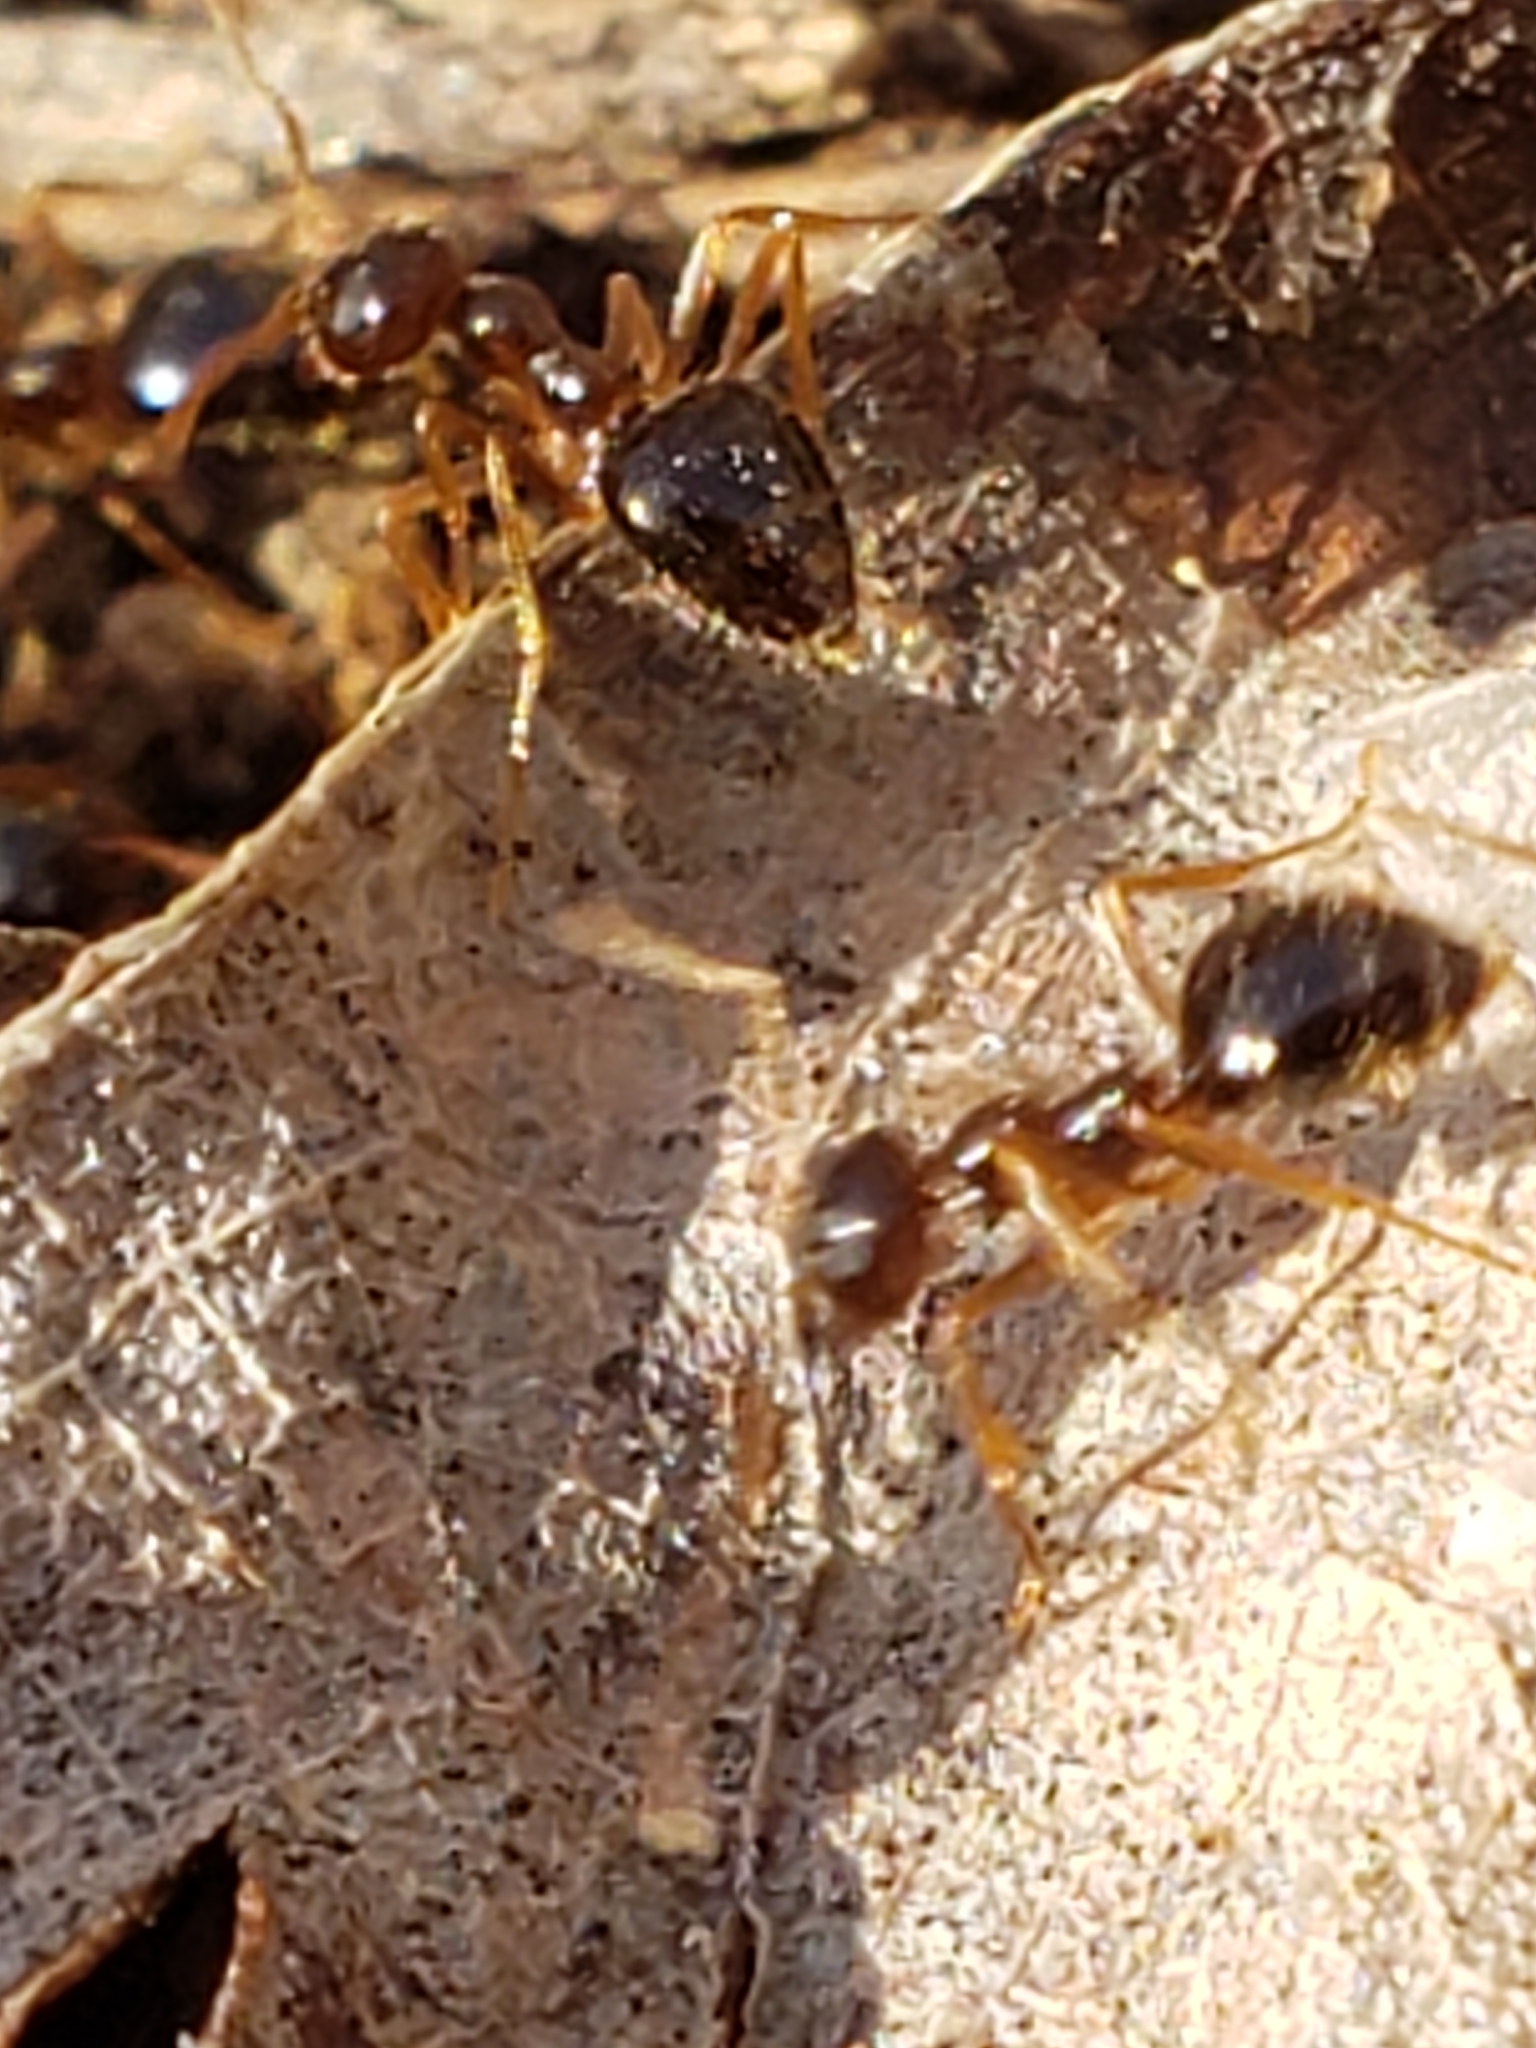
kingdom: Animalia
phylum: Arthropoda
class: Insecta
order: Hymenoptera
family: Formicidae
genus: Prenolepis
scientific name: Prenolepis imparis
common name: Small honey ant
